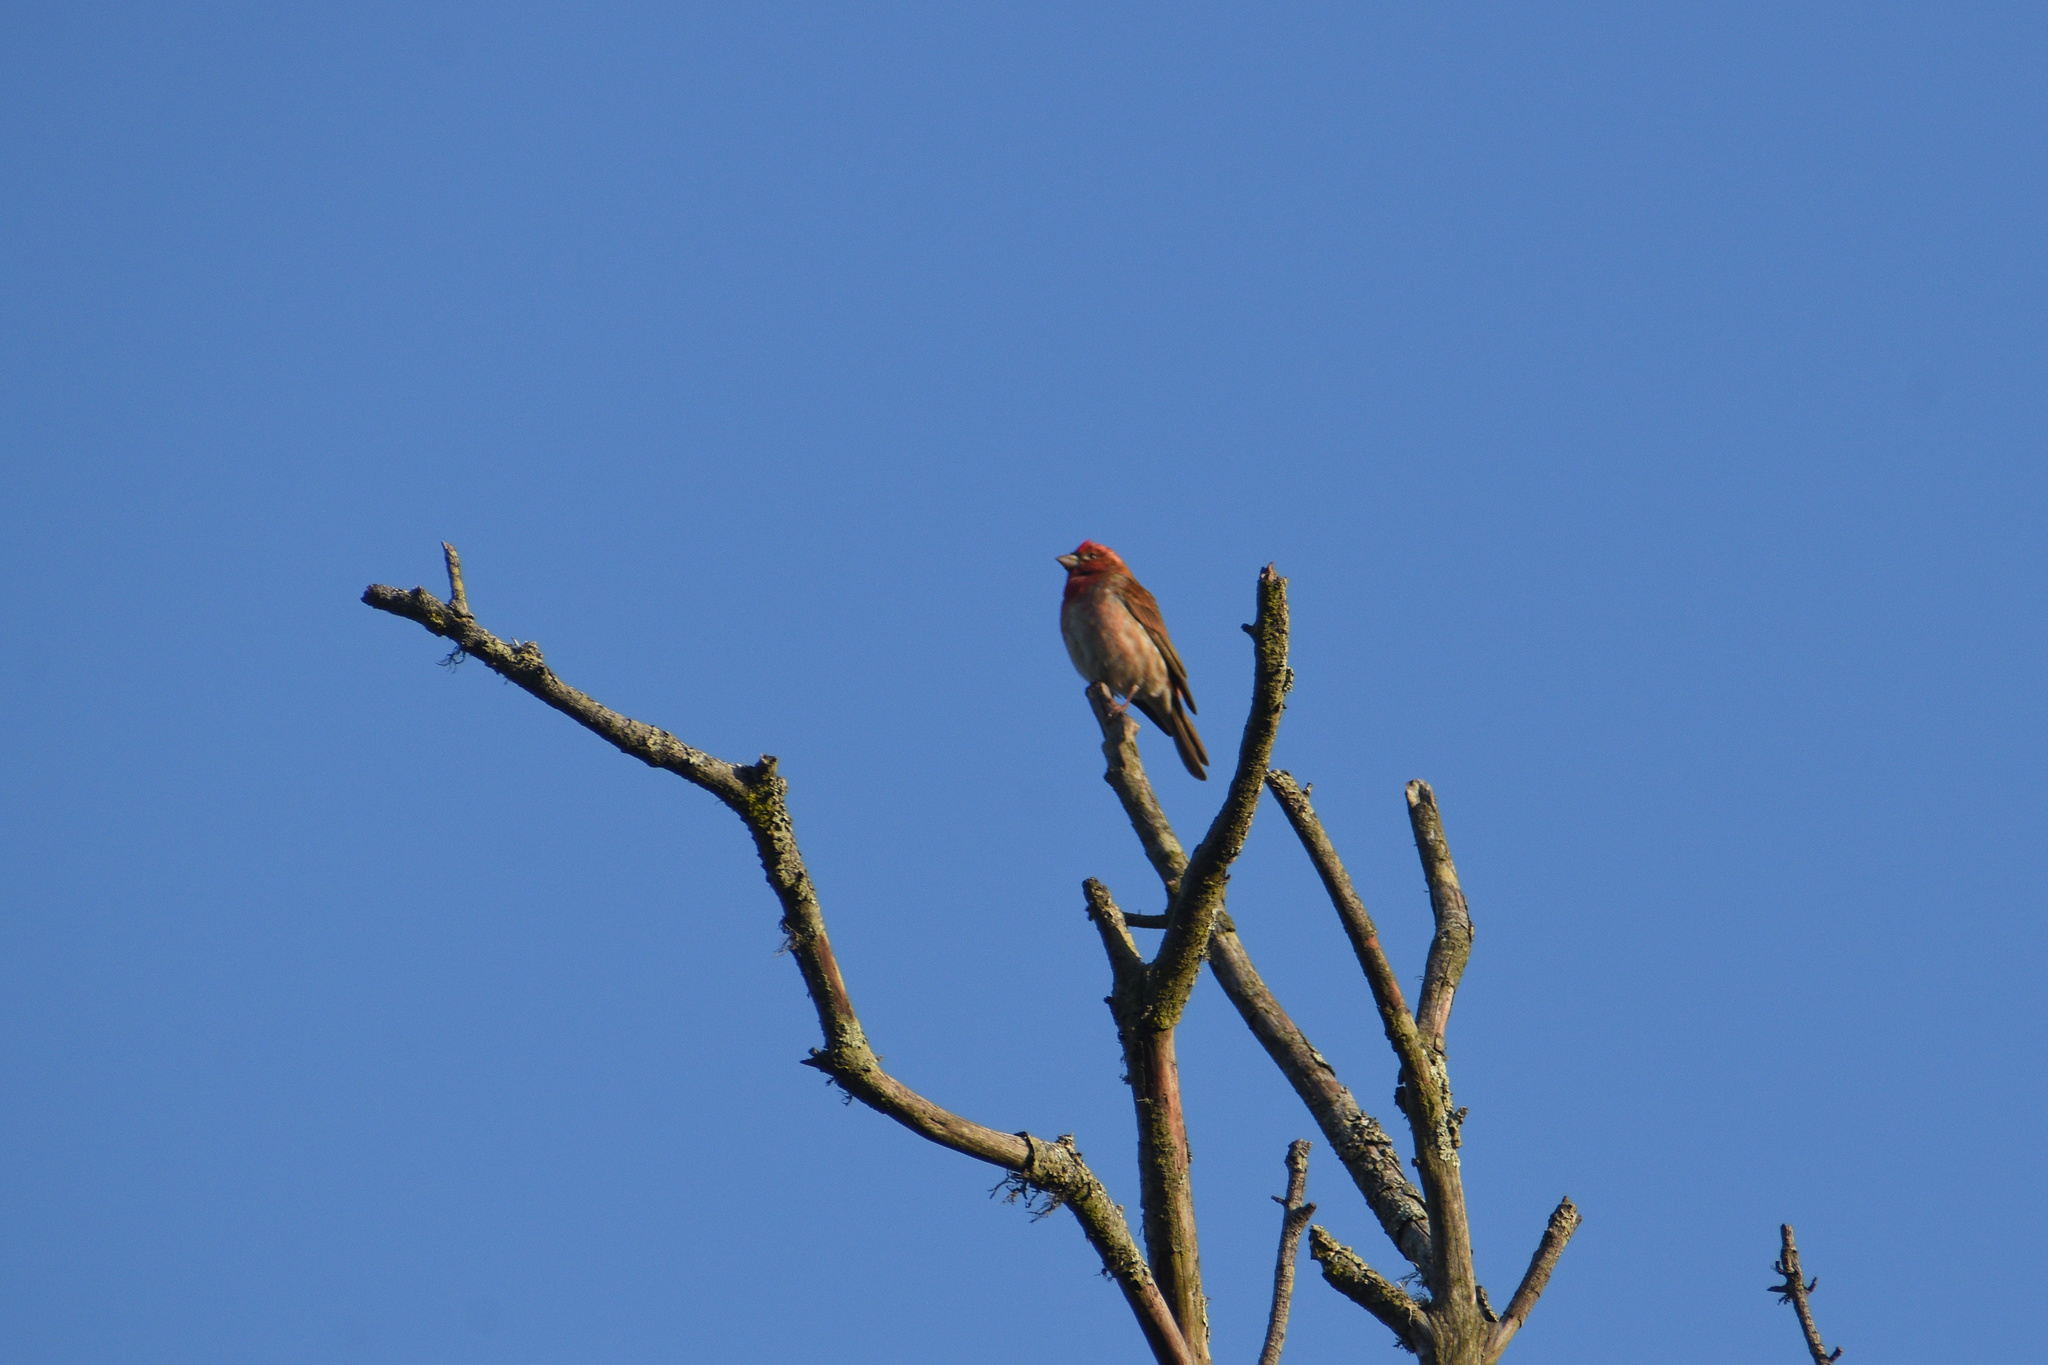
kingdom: Animalia
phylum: Chordata
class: Aves
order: Passeriformes
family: Fringillidae
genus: Haemorhous
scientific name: Haemorhous purpureus
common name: Purple finch
